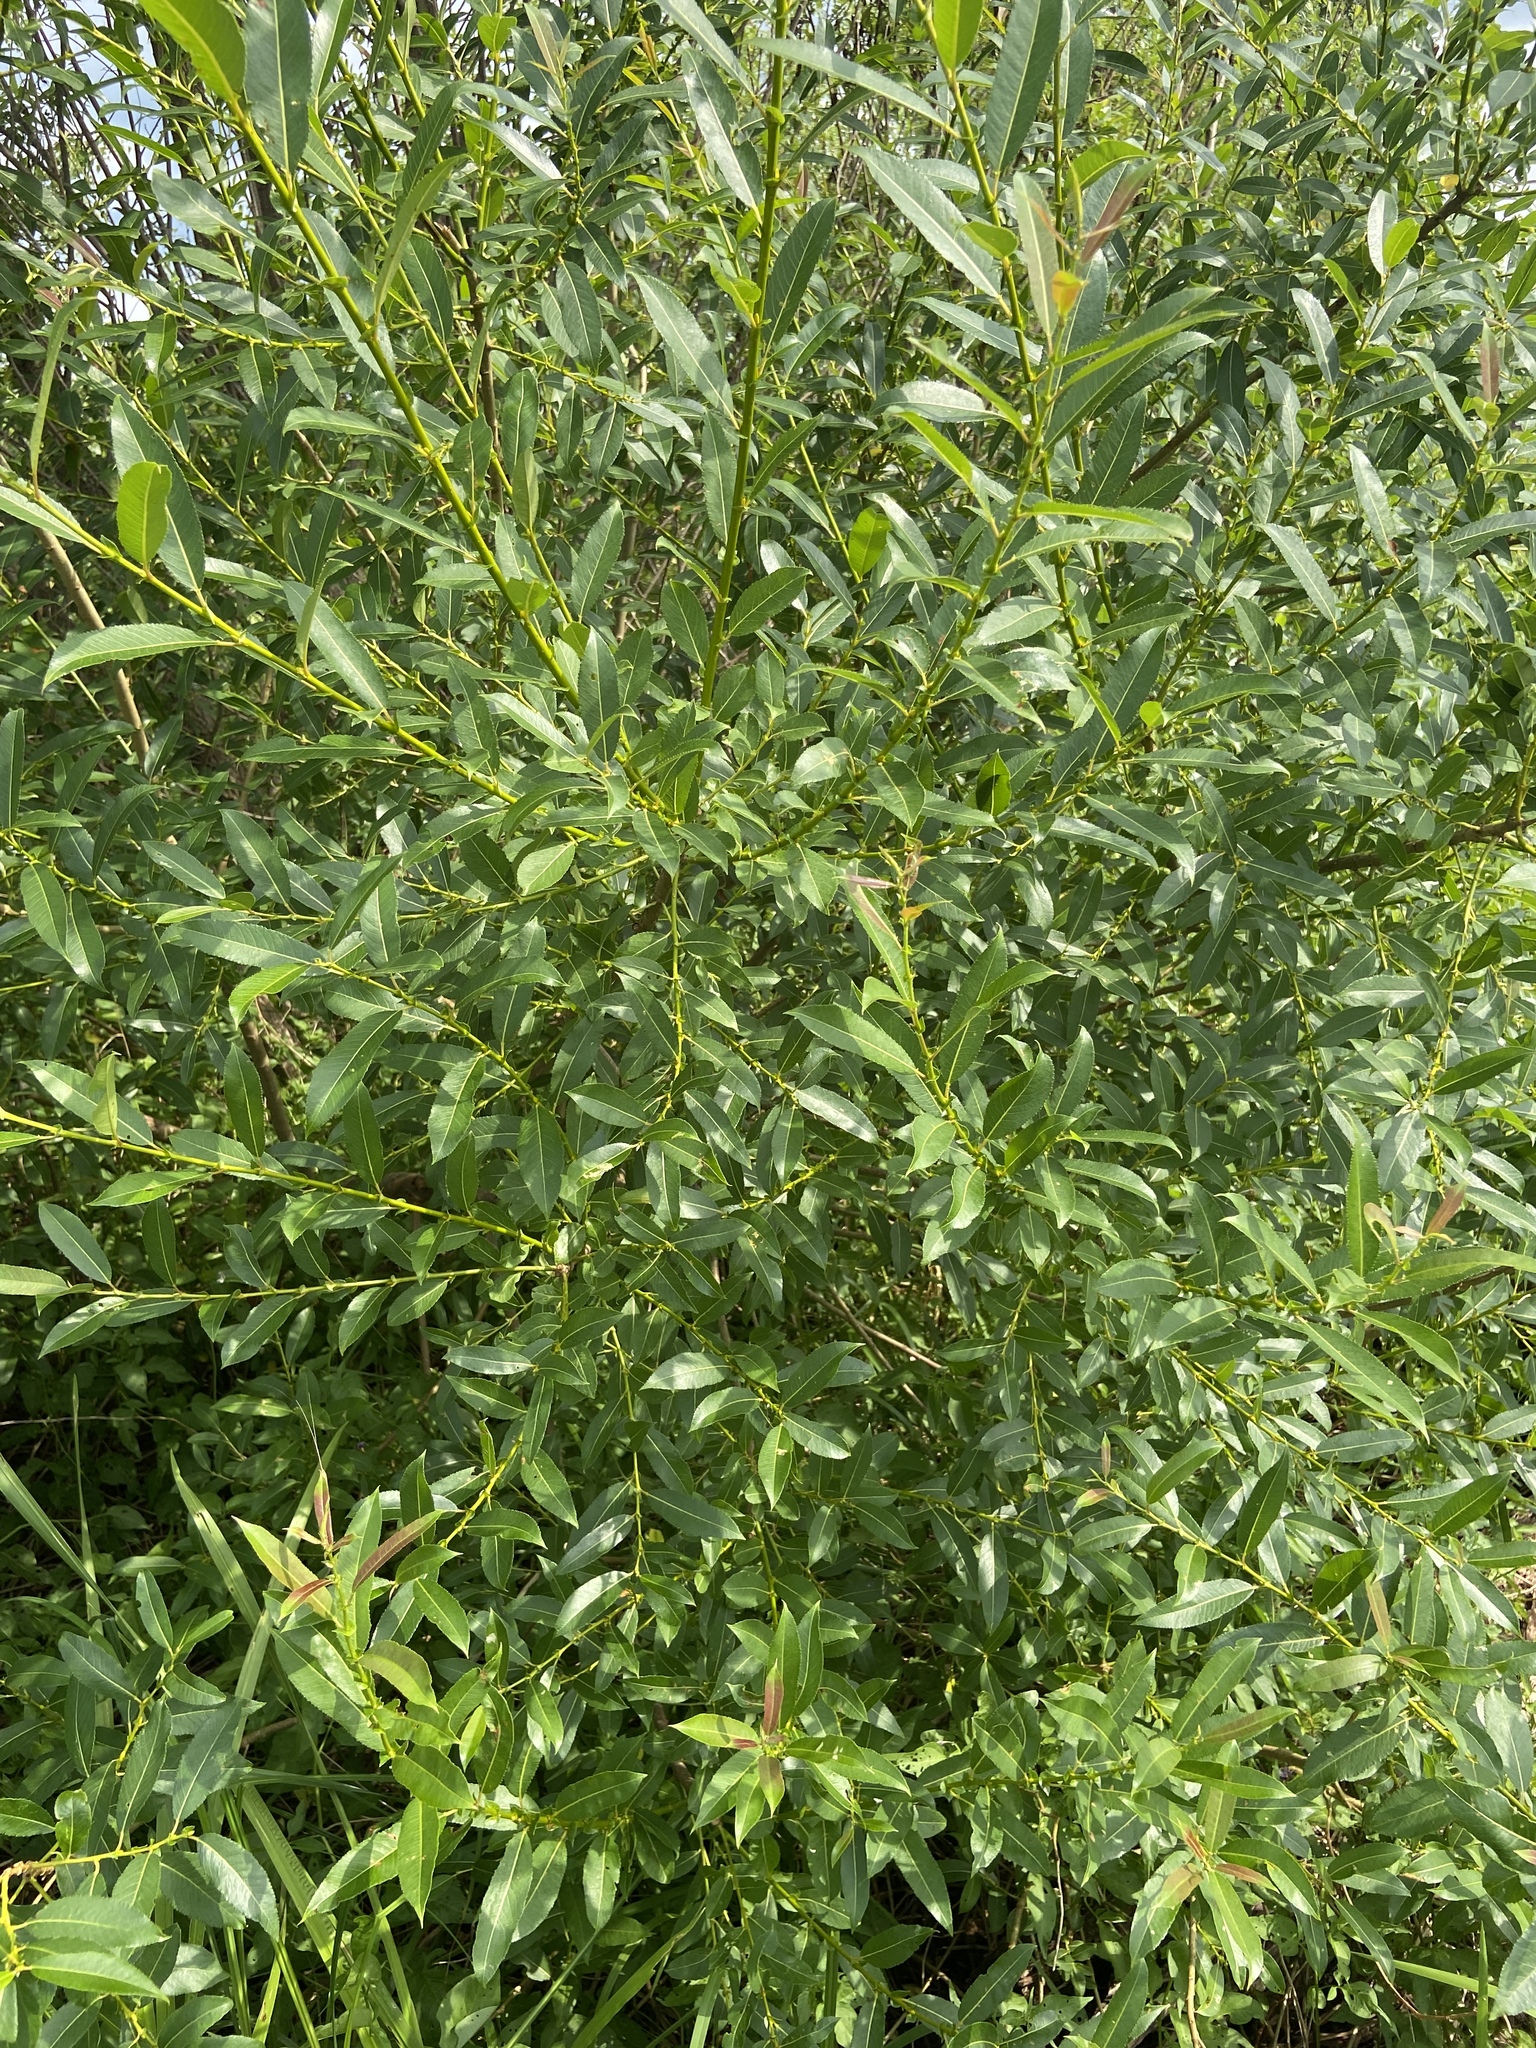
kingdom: Plantae
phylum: Tracheophyta
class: Magnoliopsida
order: Malpighiales
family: Salicaceae
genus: Salix
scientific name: Salix triandra
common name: Almond willow
